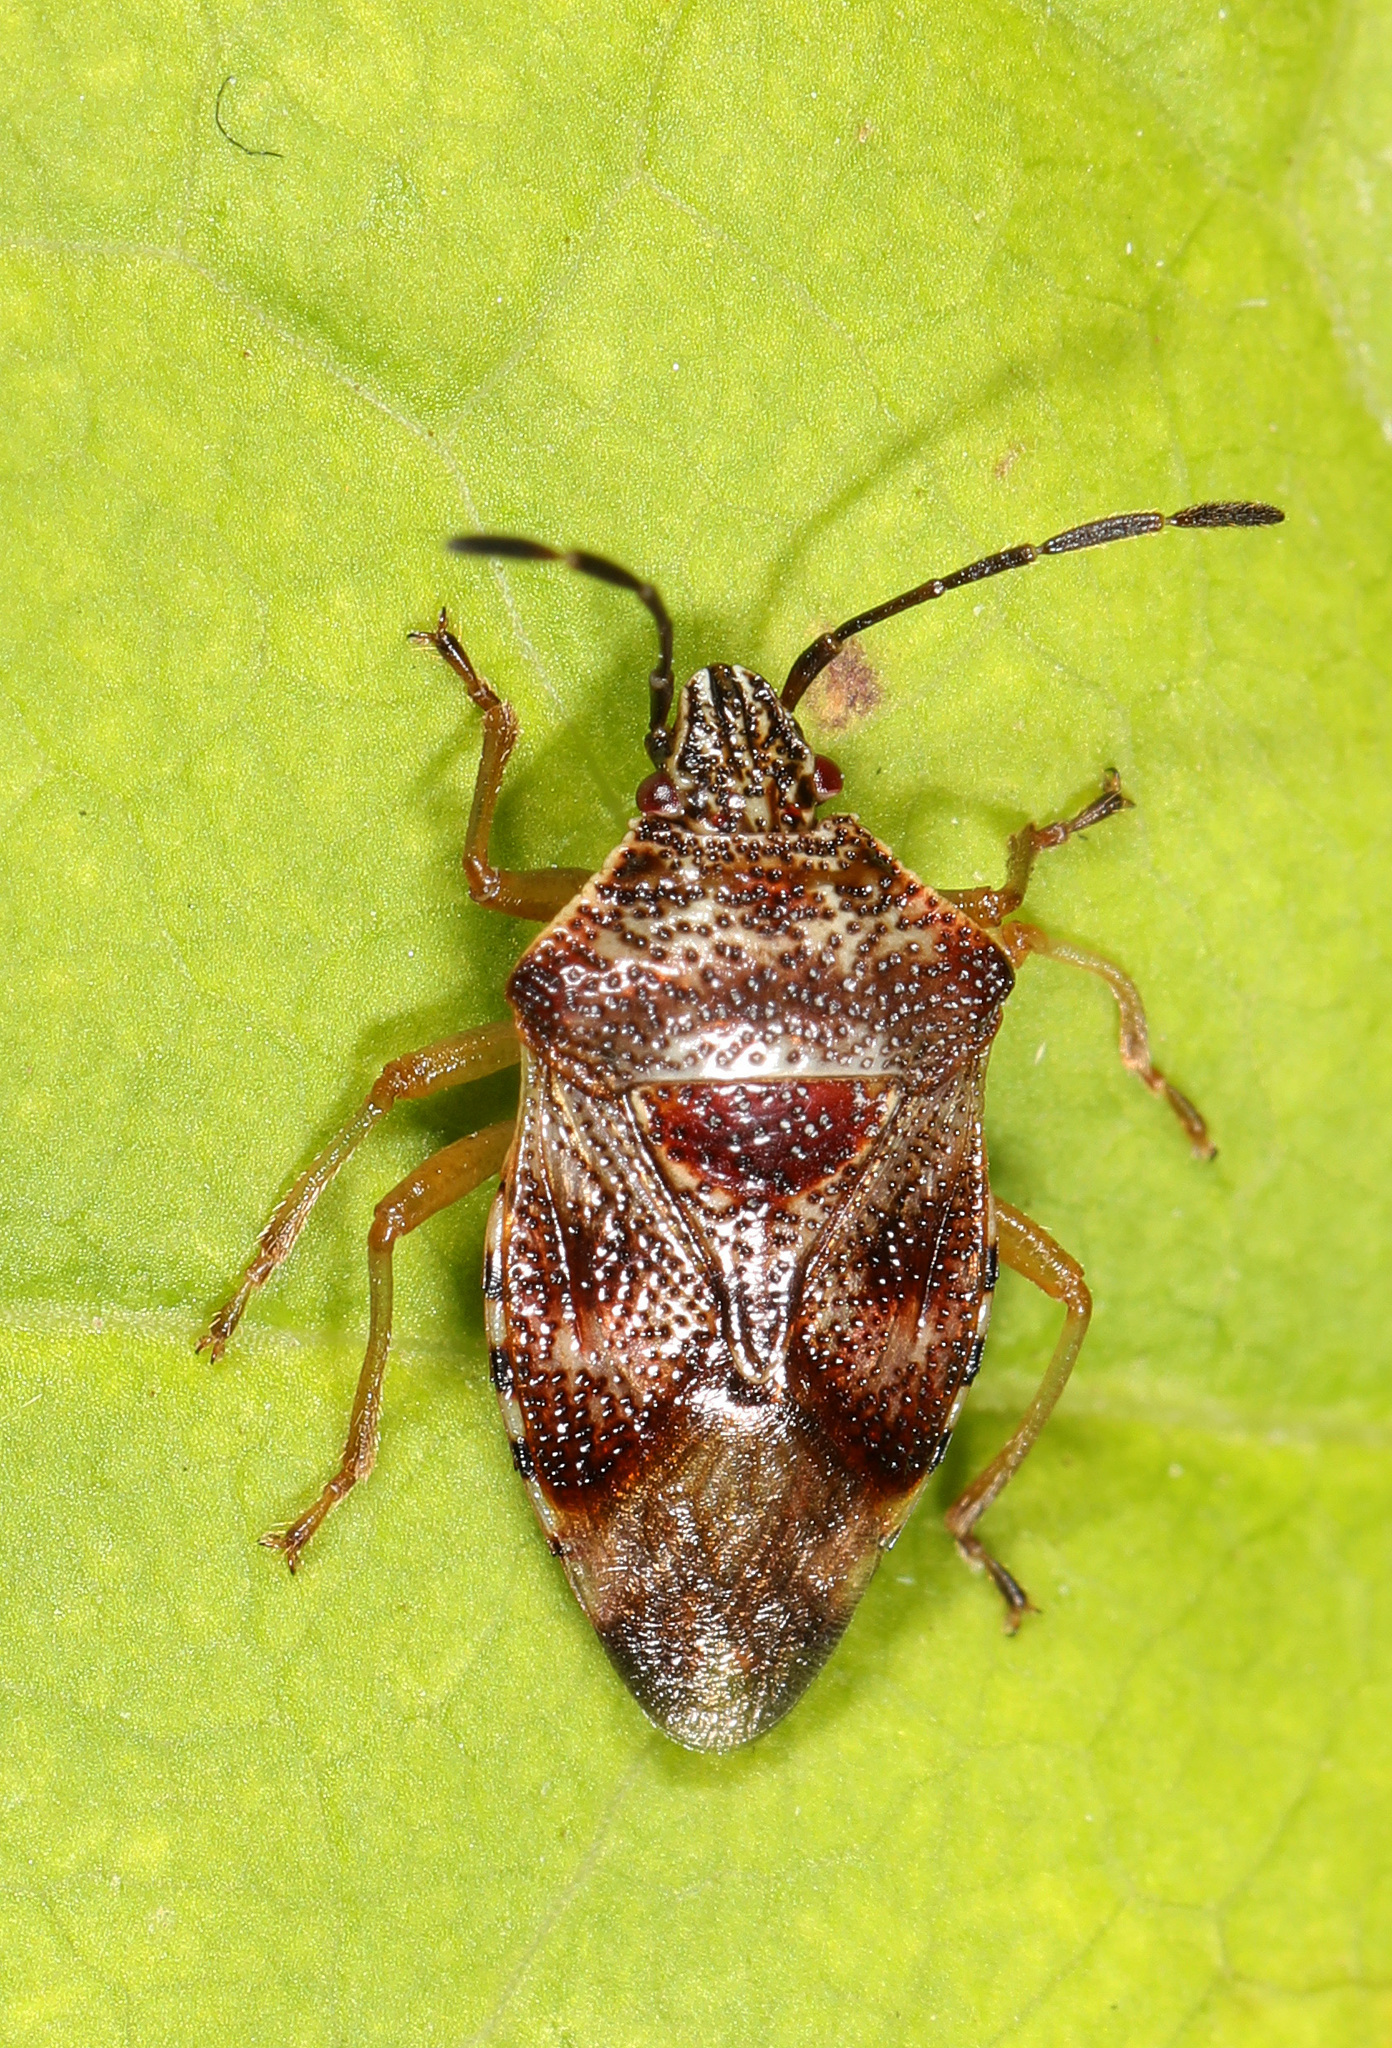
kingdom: Animalia
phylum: Arthropoda
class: Insecta
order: Hemiptera
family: Acanthosomatidae
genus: Elasmucha
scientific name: Elasmucha lateralis
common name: Shield bug
